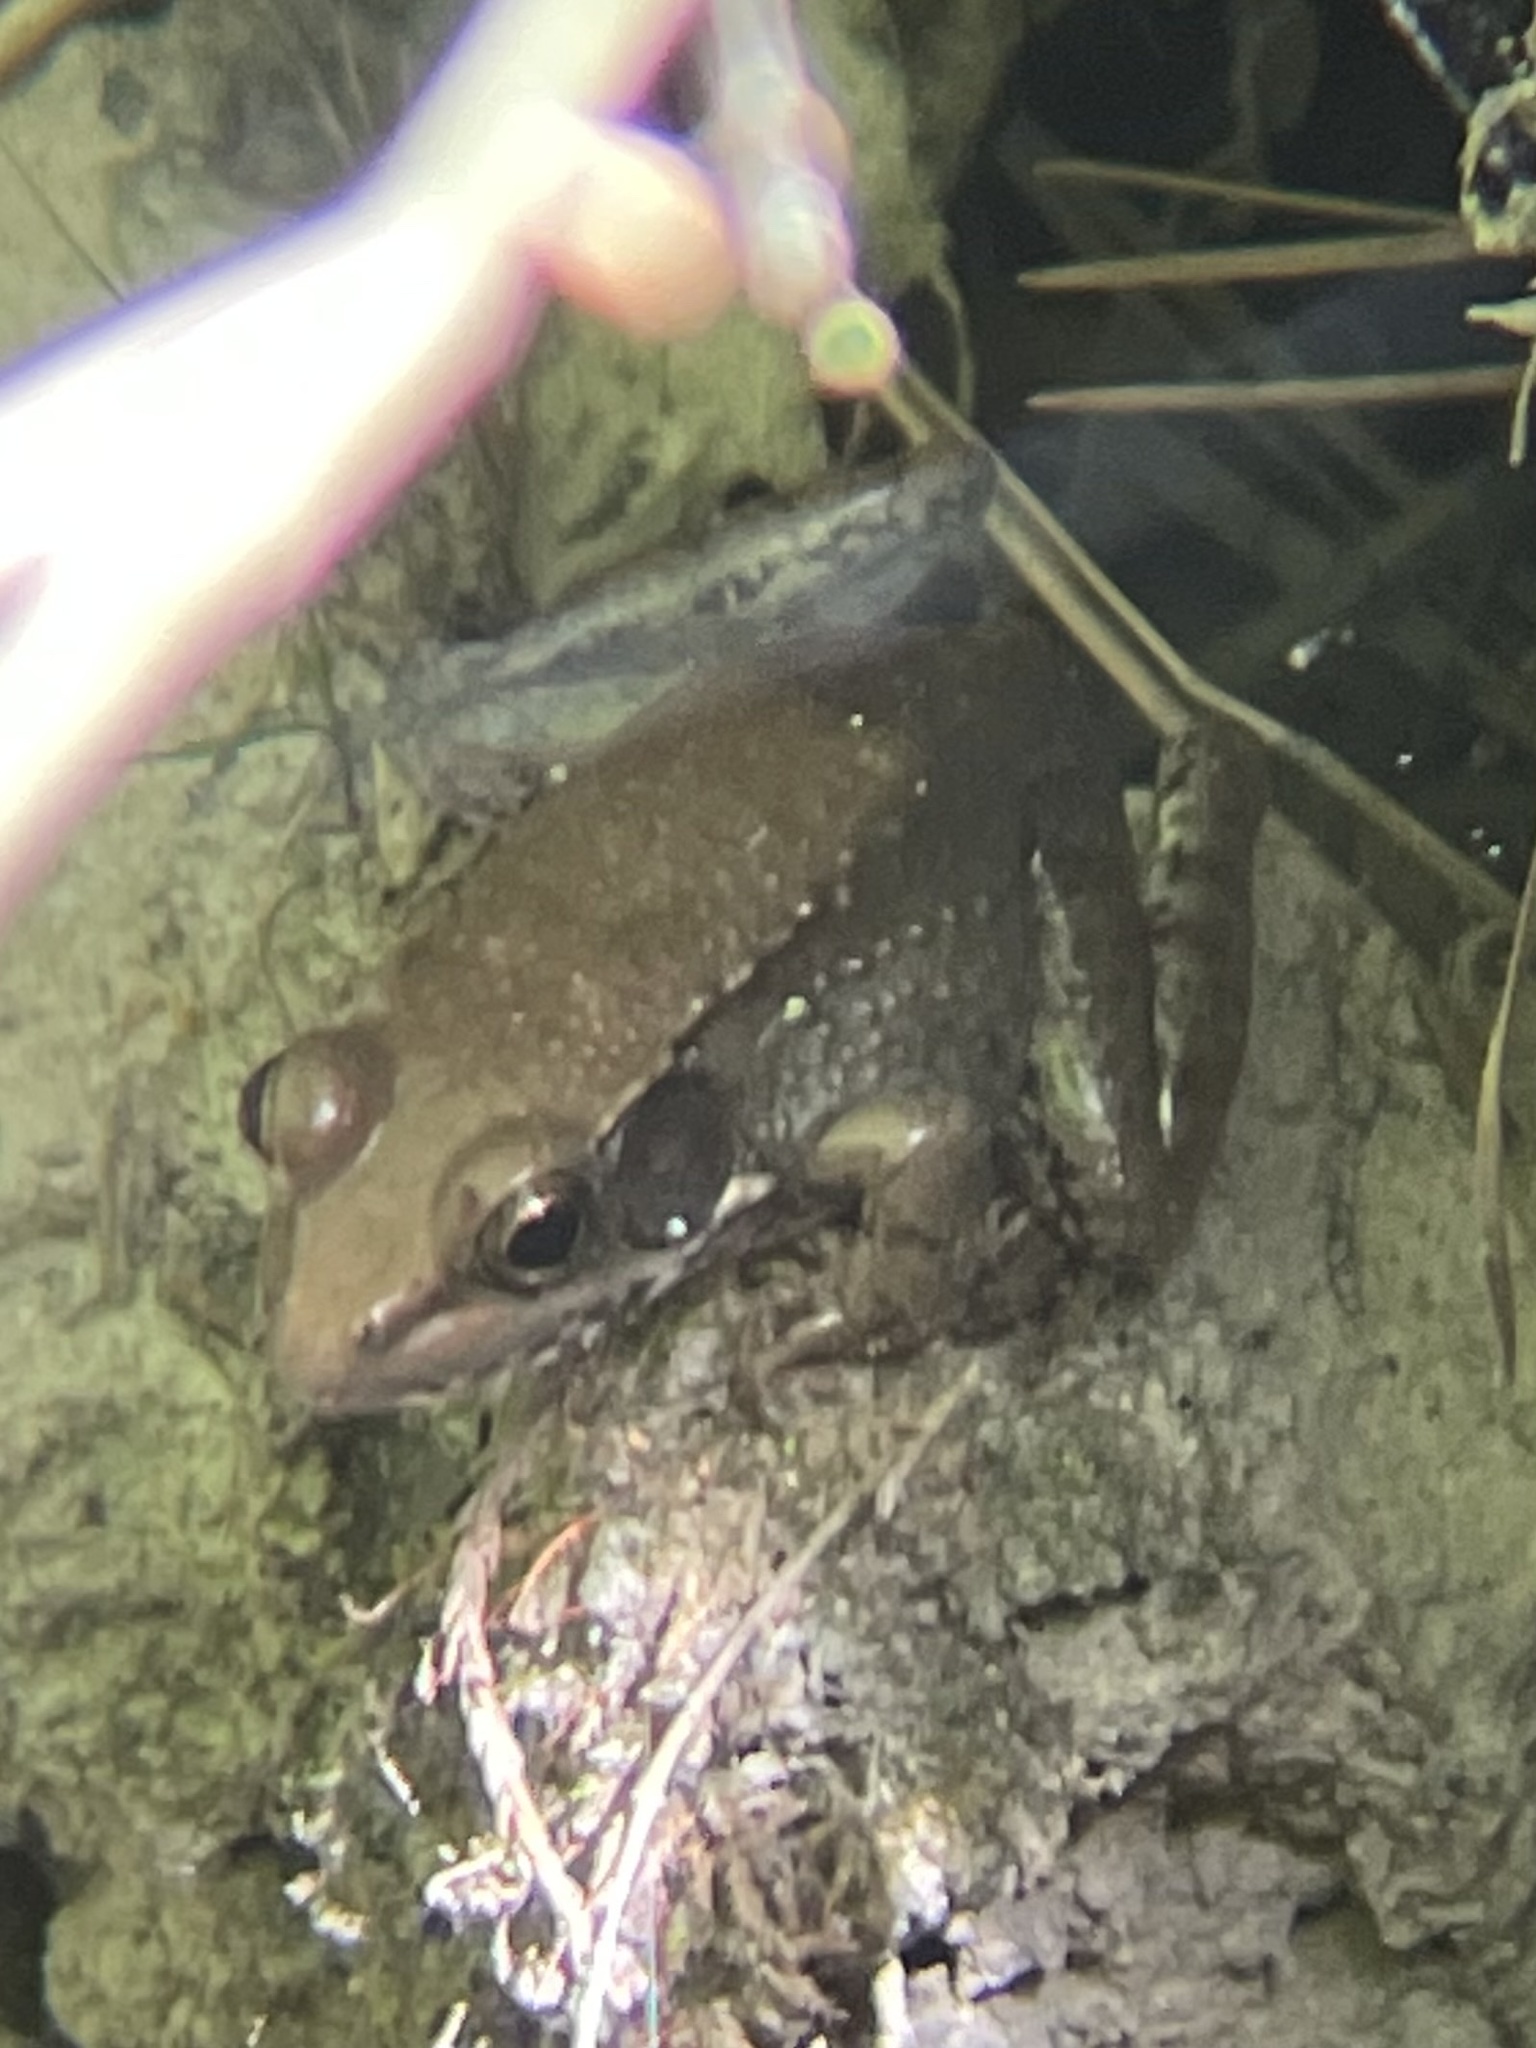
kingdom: Animalia
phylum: Chordata
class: Amphibia
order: Anura
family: Ranidae
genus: Lithobates
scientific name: Lithobates clamitans
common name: Green frog
